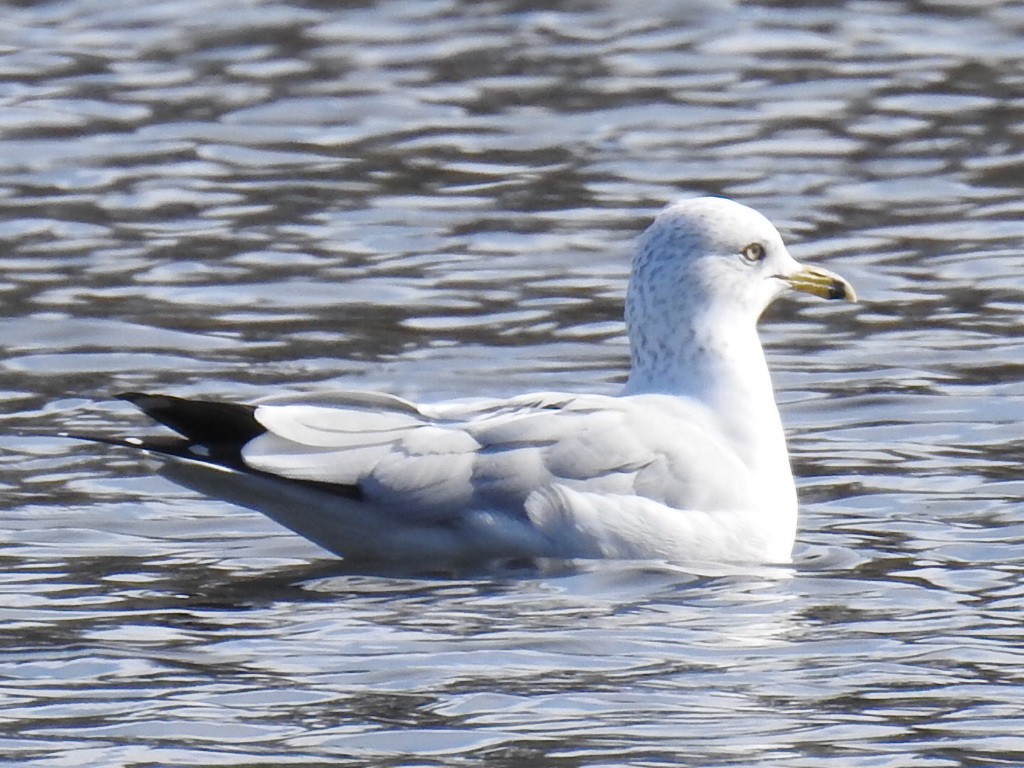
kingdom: Animalia
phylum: Chordata
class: Aves
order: Charadriiformes
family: Laridae
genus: Larus
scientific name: Larus delawarensis
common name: Ring-billed gull
